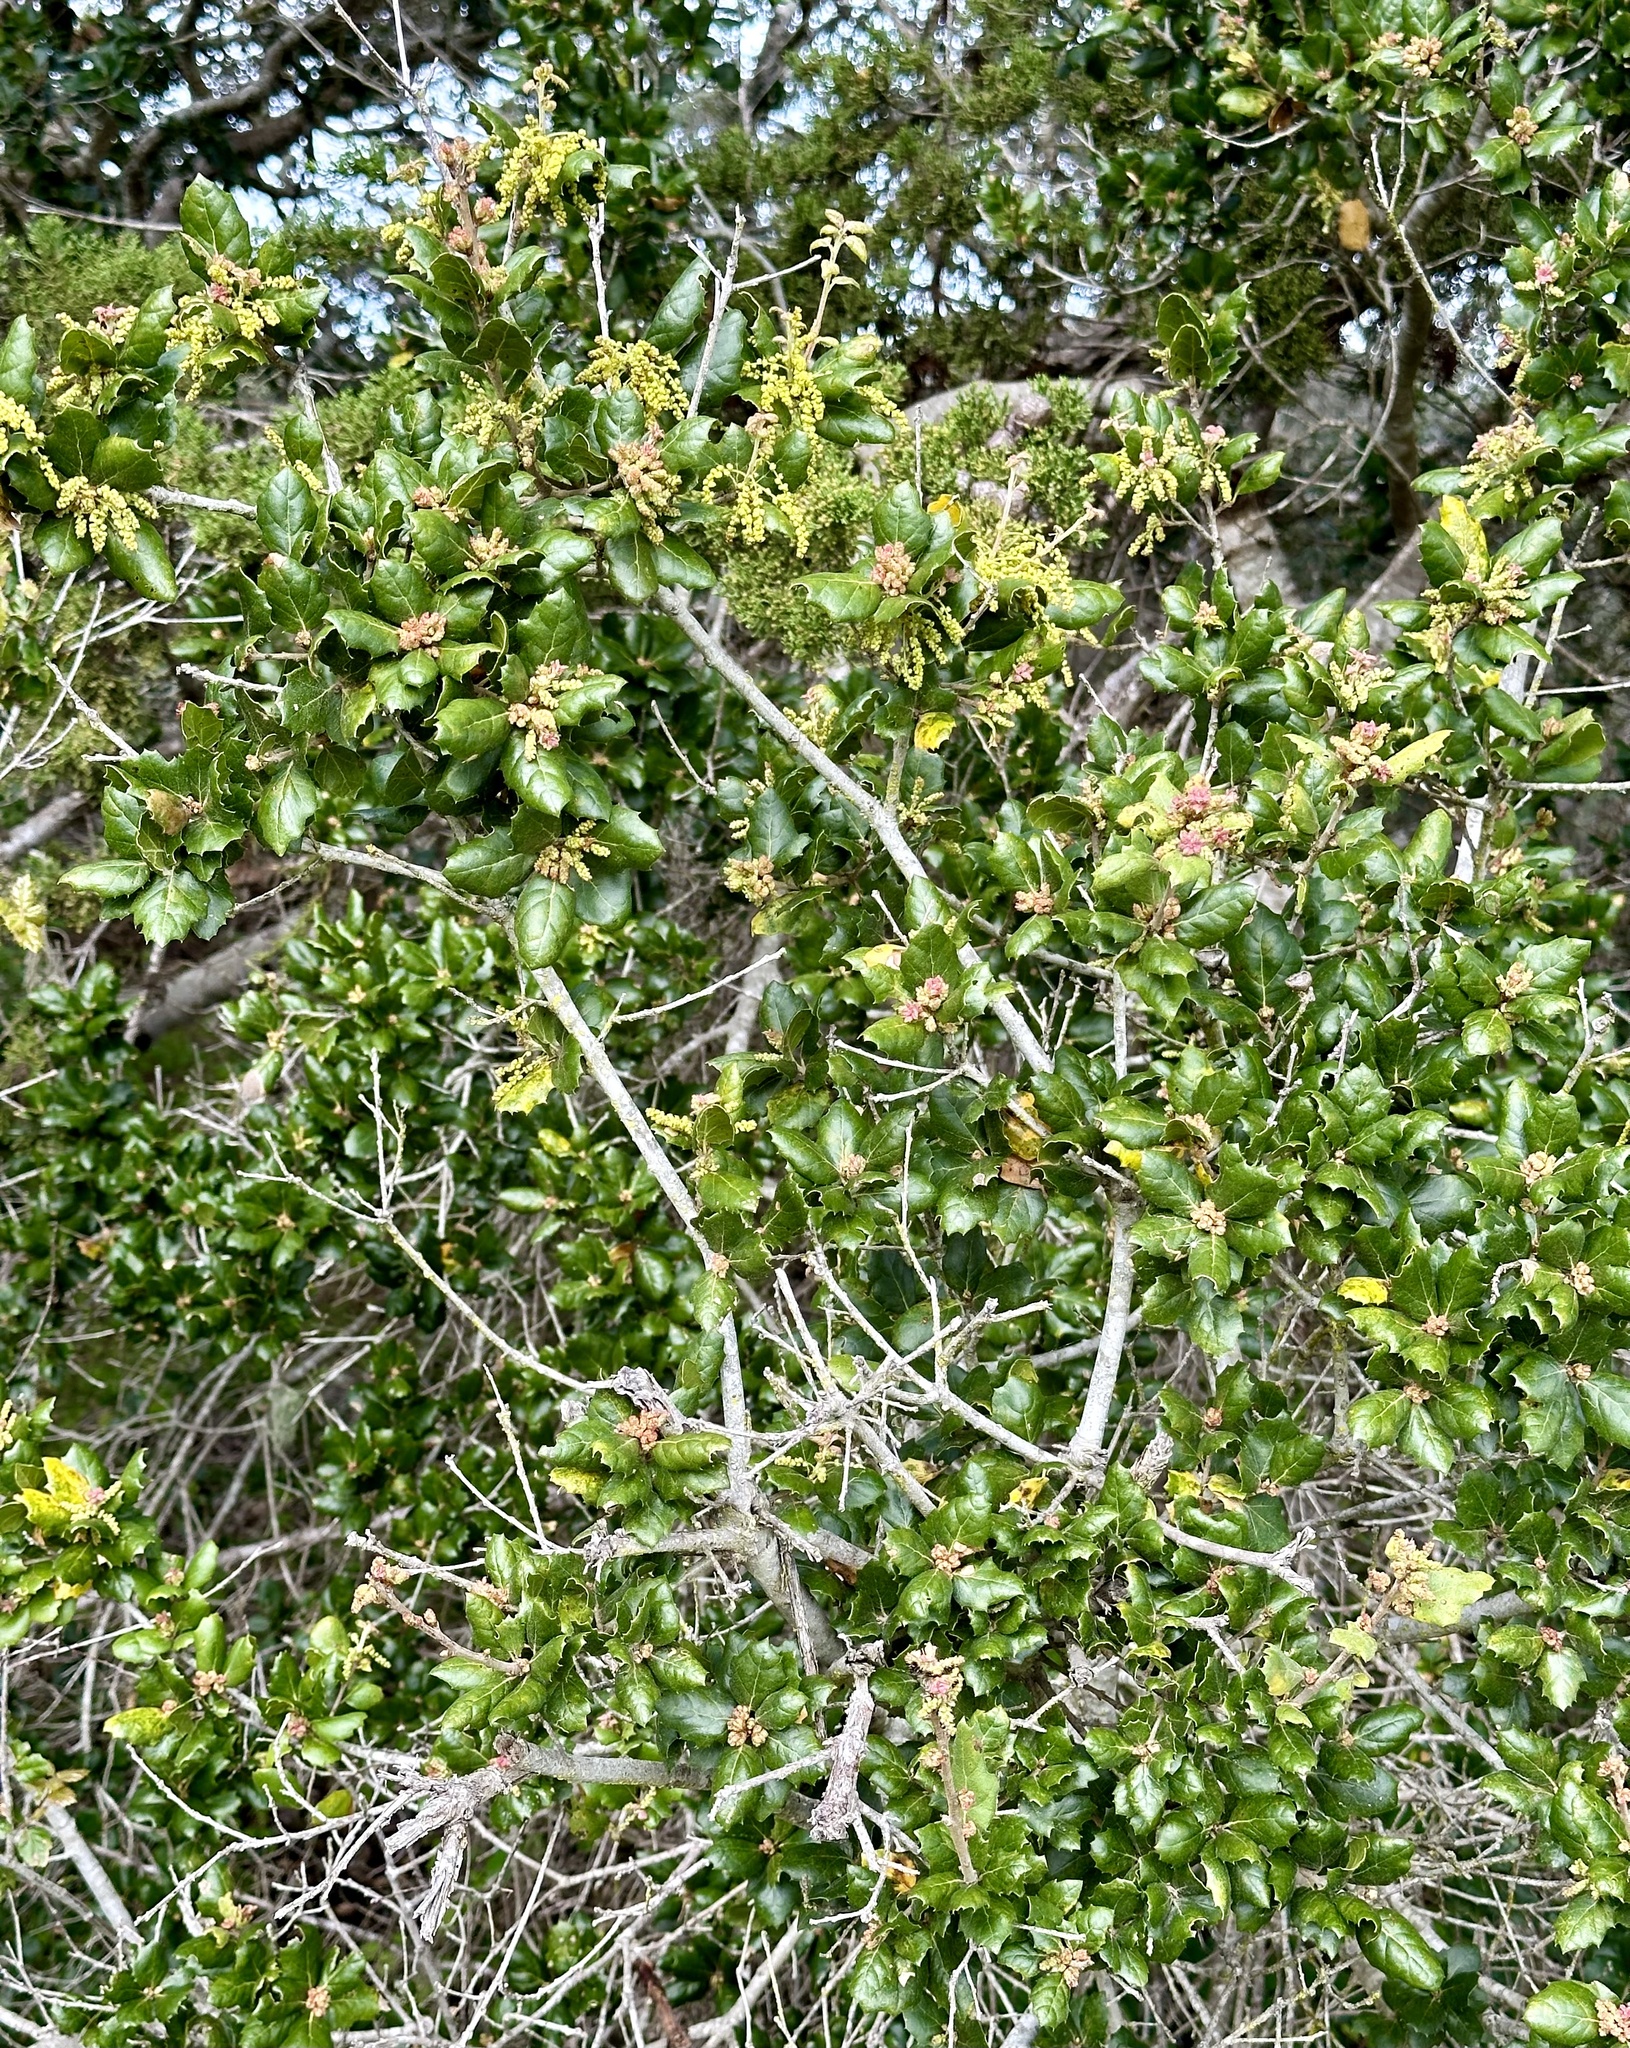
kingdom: Plantae
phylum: Tracheophyta
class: Magnoliopsida
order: Fagales
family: Fagaceae
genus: Quercus
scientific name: Quercus agrifolia
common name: California live oak
